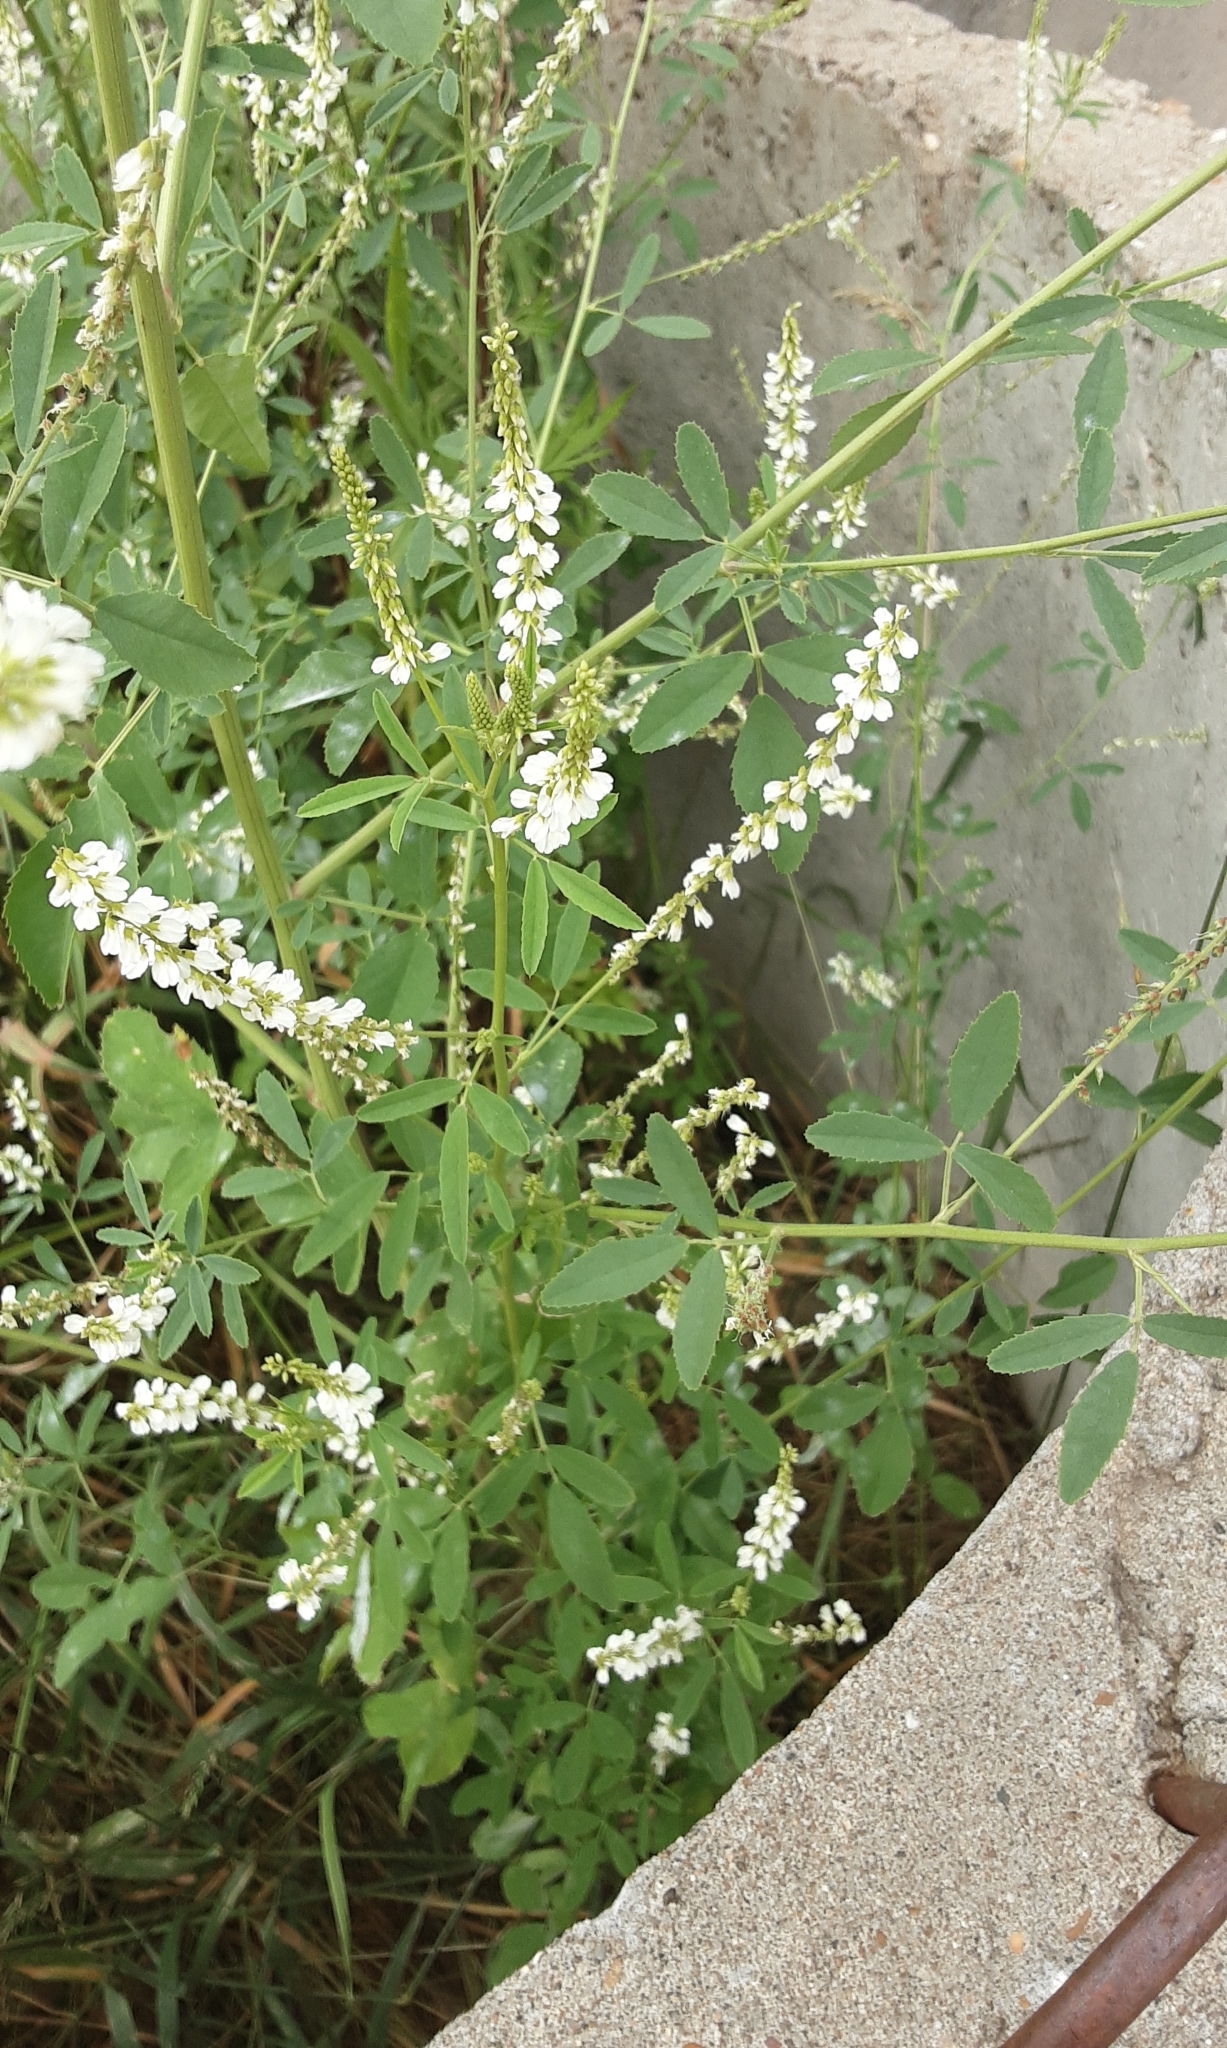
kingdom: Plantae
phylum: Tracheophyta
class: Magnoliopsida
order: Fabales
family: Fabaceae
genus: Melilotus
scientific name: Melilotus albus
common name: White melilot
